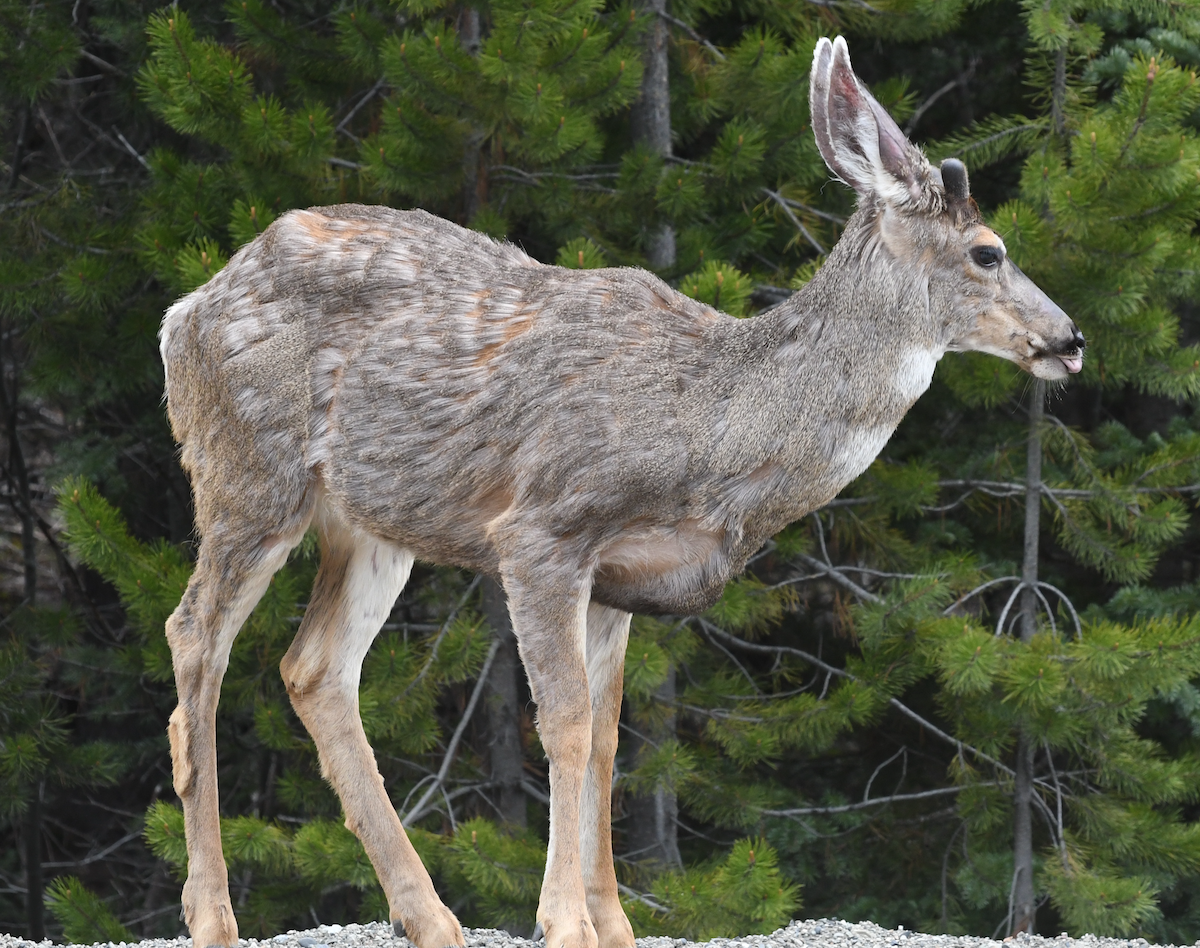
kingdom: Animalia
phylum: Chordata
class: Mammalia
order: Artiodactyla
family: Cervidae
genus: Odocoileus
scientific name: Odocoileus hemionus
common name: Mule deer
